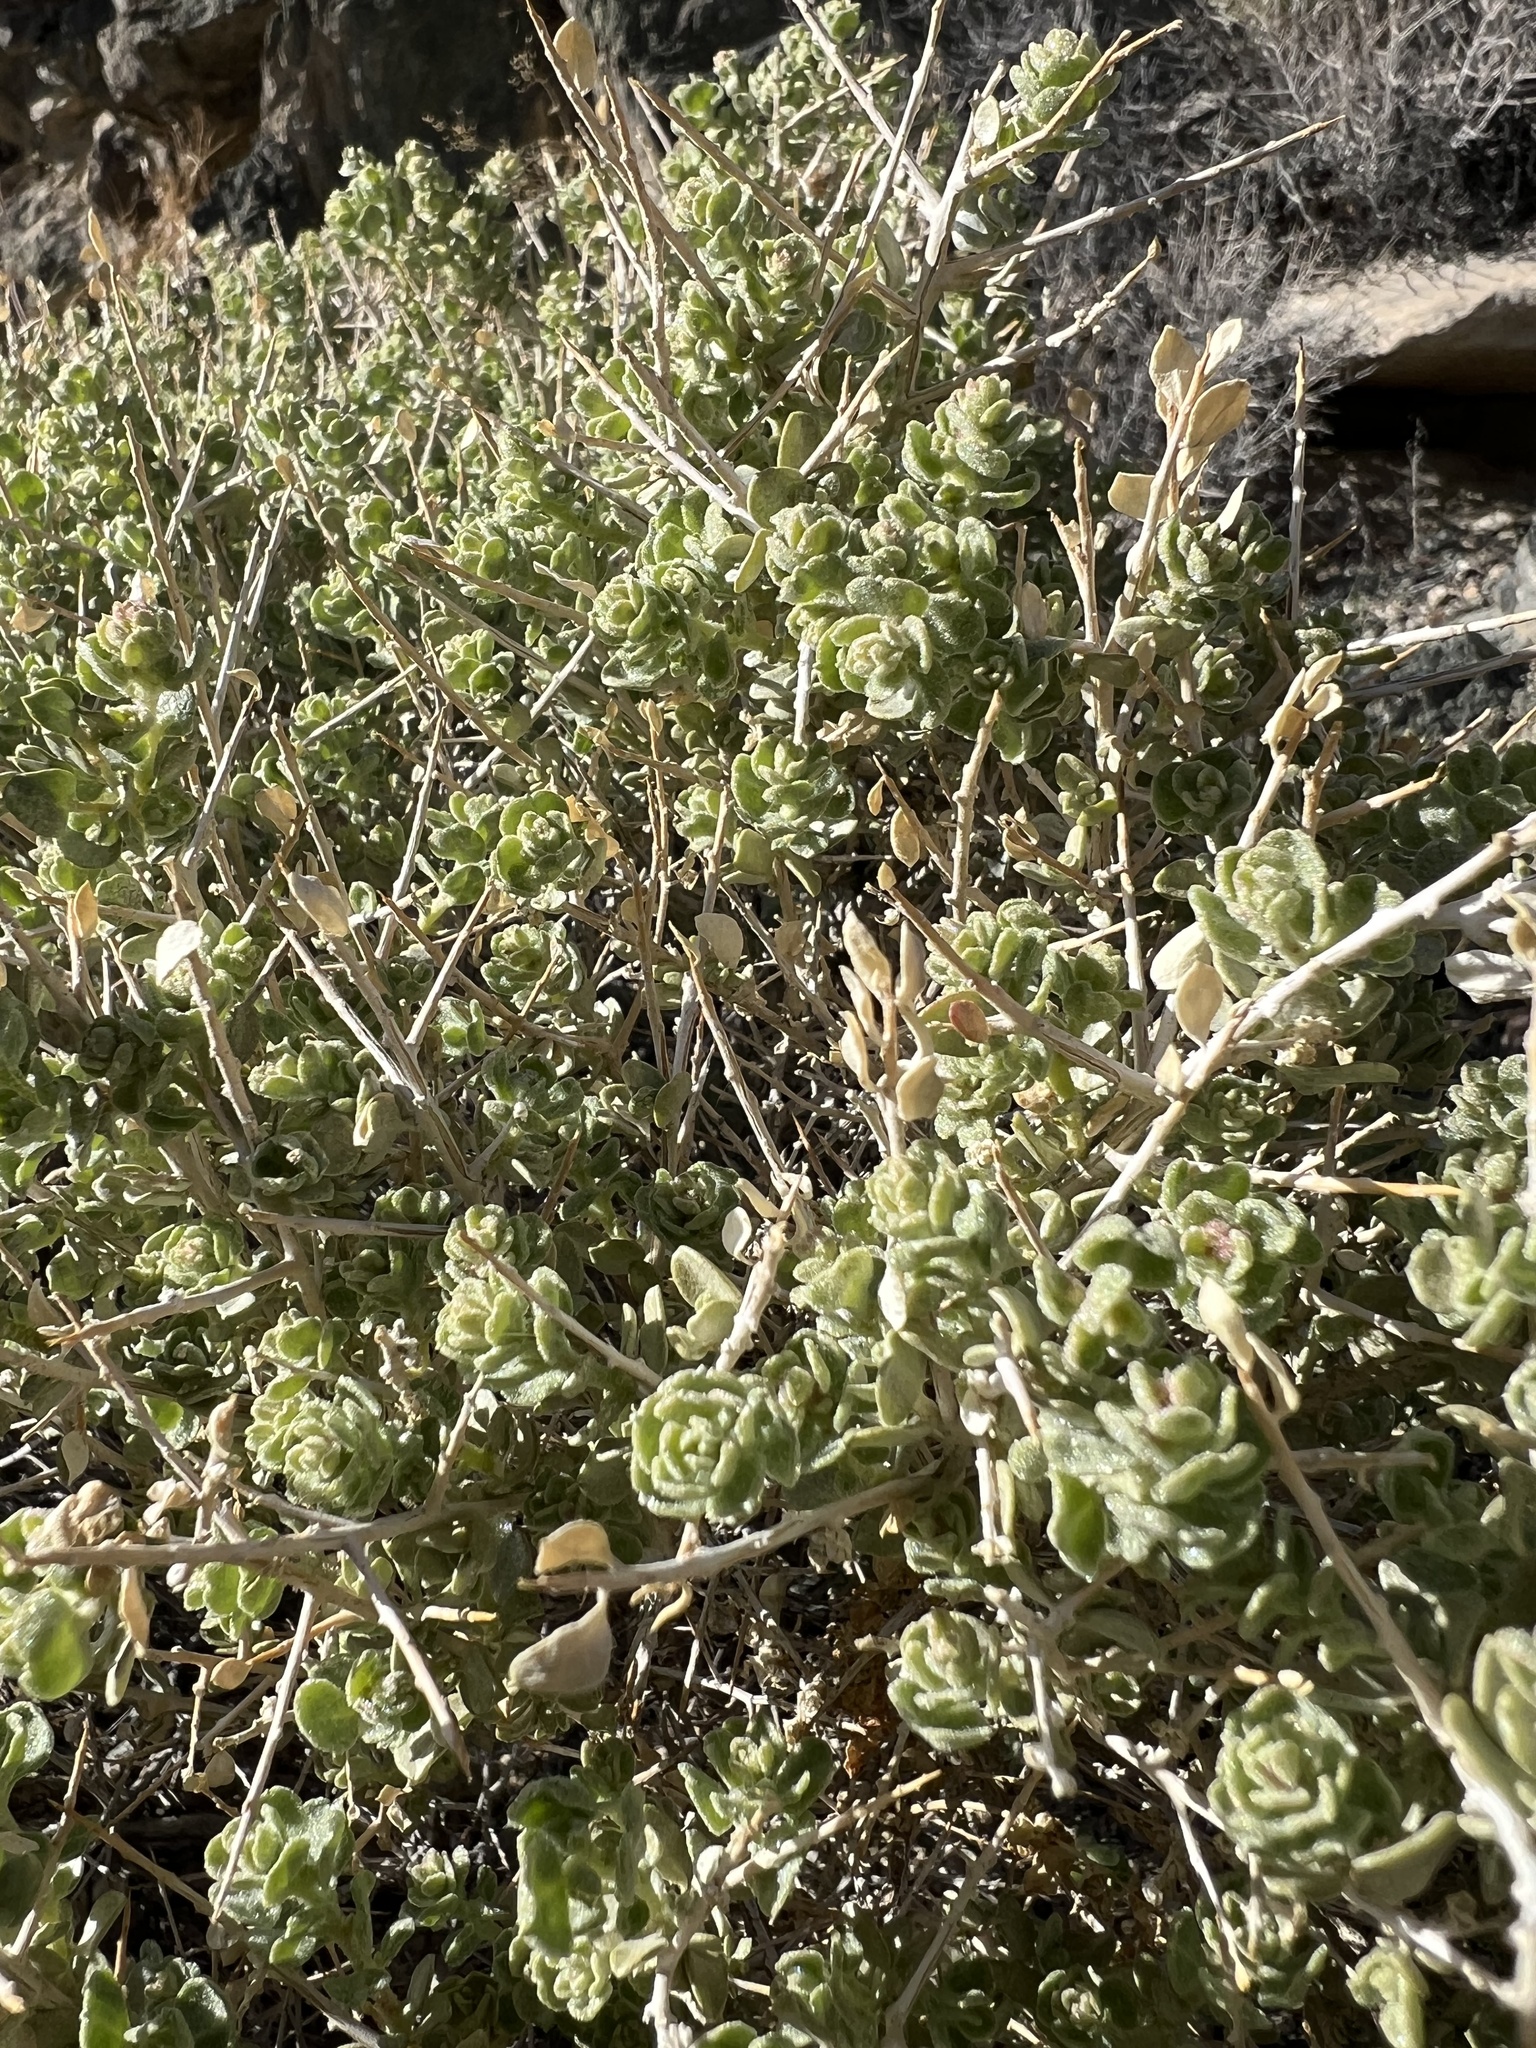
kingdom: Plantae
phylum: Tracheophyta
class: Magnoliopsida
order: Caryophyllales
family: Amaranthaceae
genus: Atriplex
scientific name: Atriplex confertifolia
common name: Shadscale
